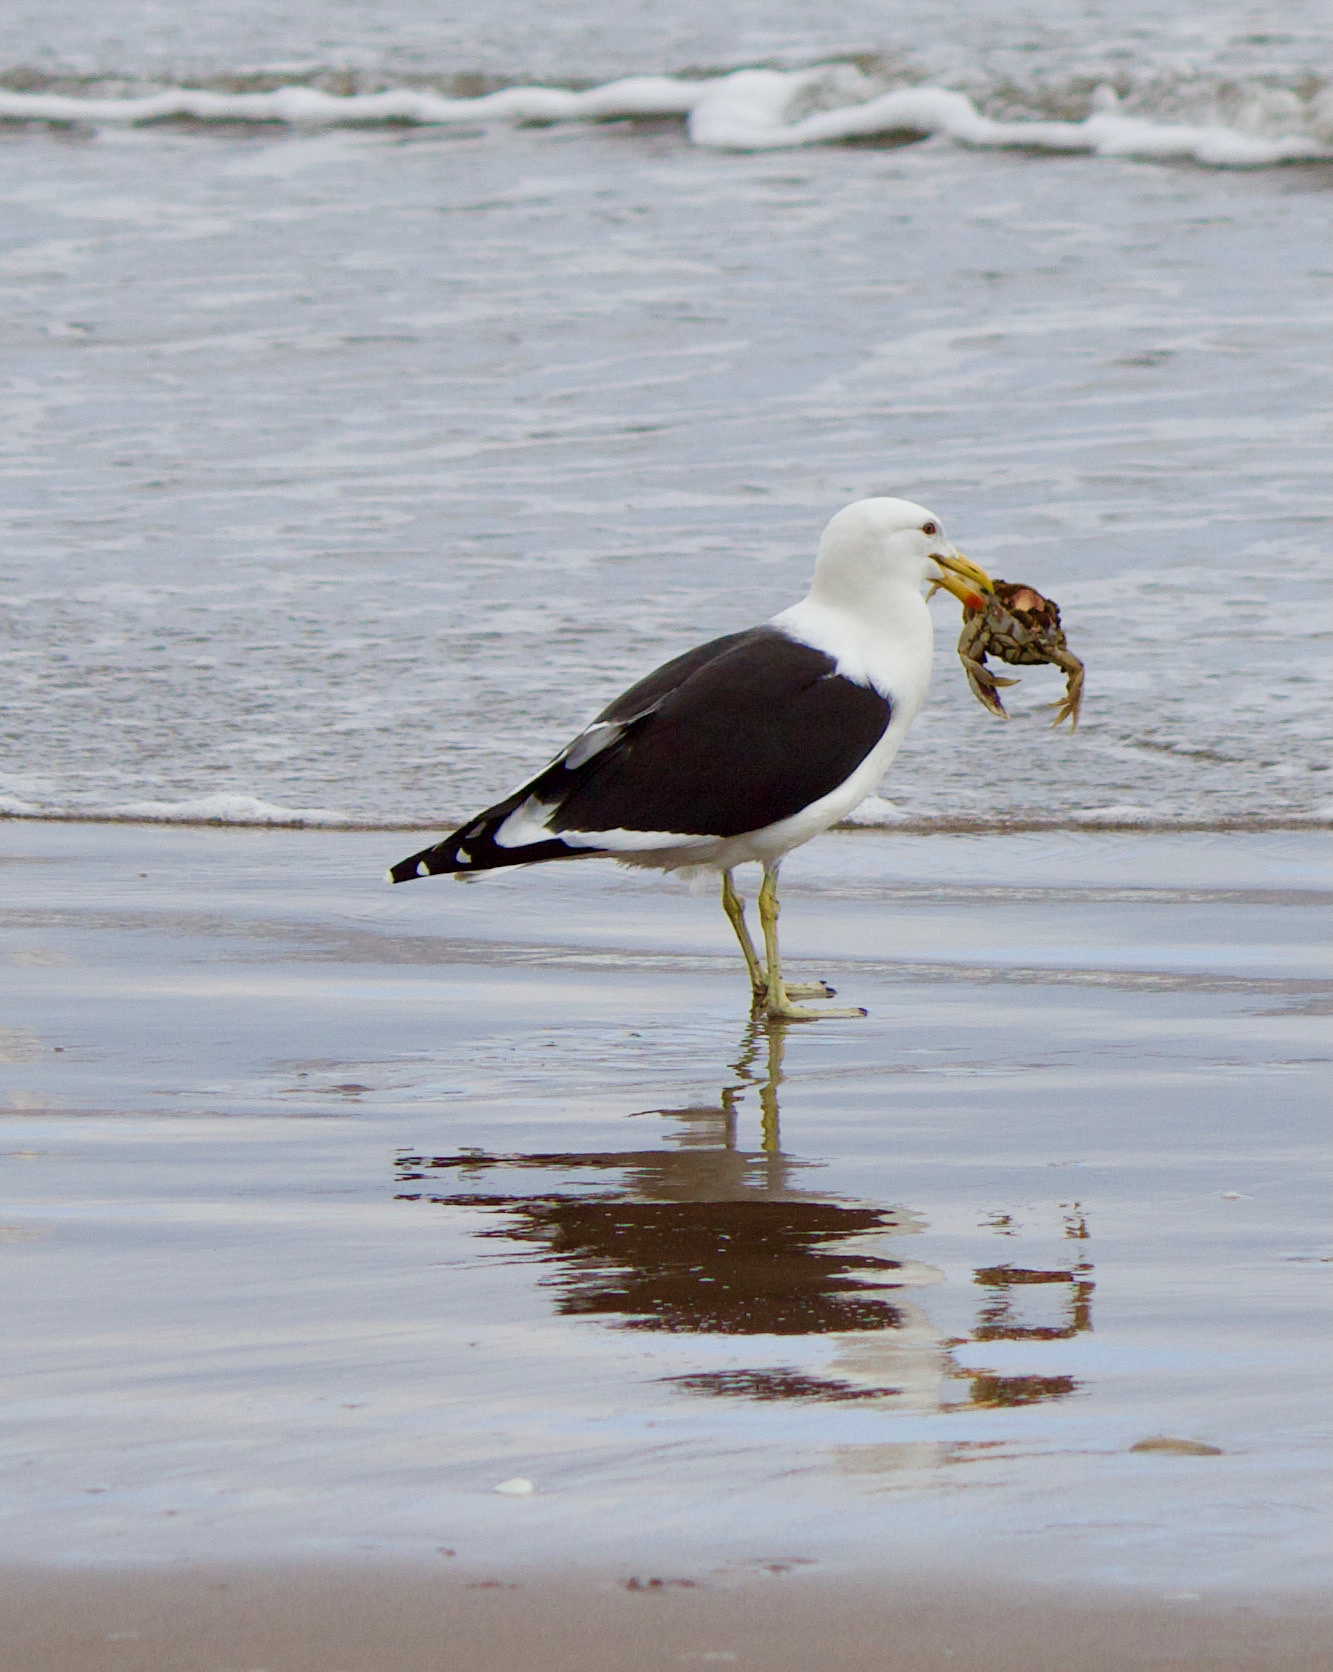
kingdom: Animalia
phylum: Chordata
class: Aves
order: Charadriiformes
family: Laridae
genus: Larus
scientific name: Larus dominicanus
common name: Kelp gull
